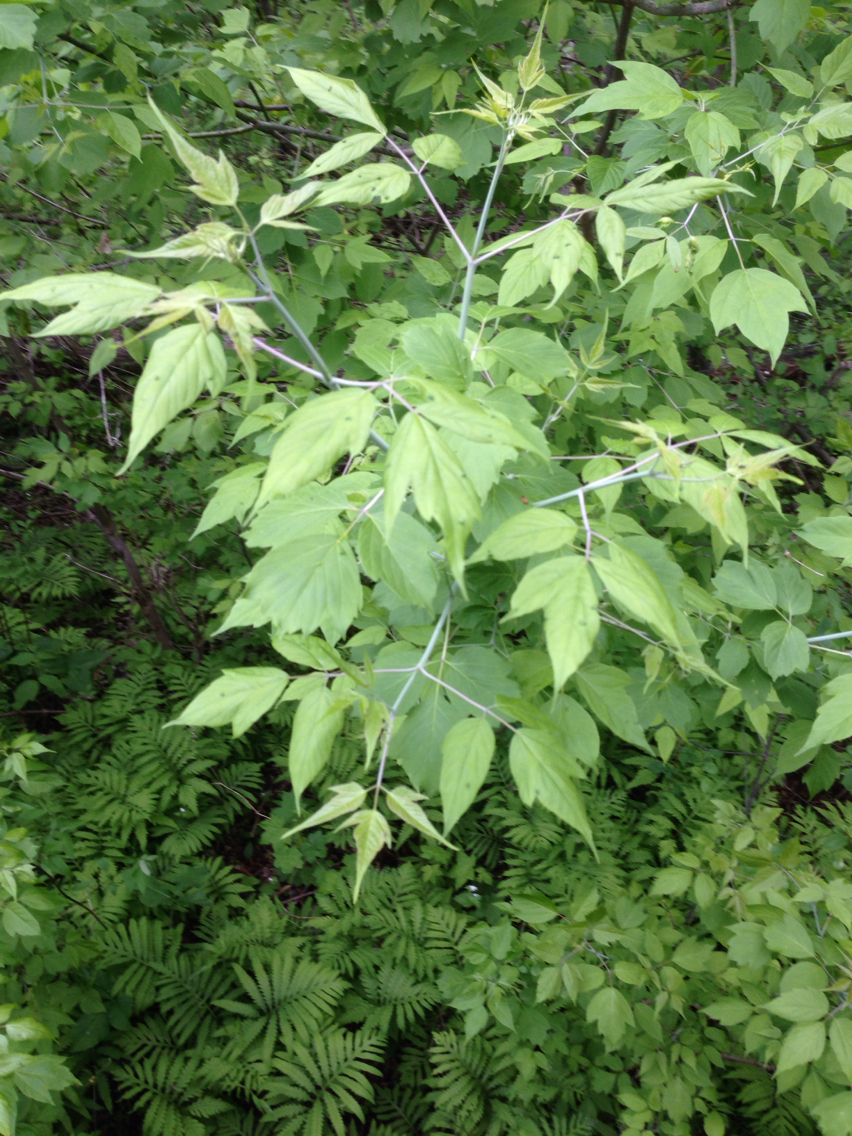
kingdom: Plantae
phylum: Tracheophyta
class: Magnoliopsida
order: Sapindales
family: Sapindaceae
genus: Acer
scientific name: Acer negundo
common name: Ashleaf maple
